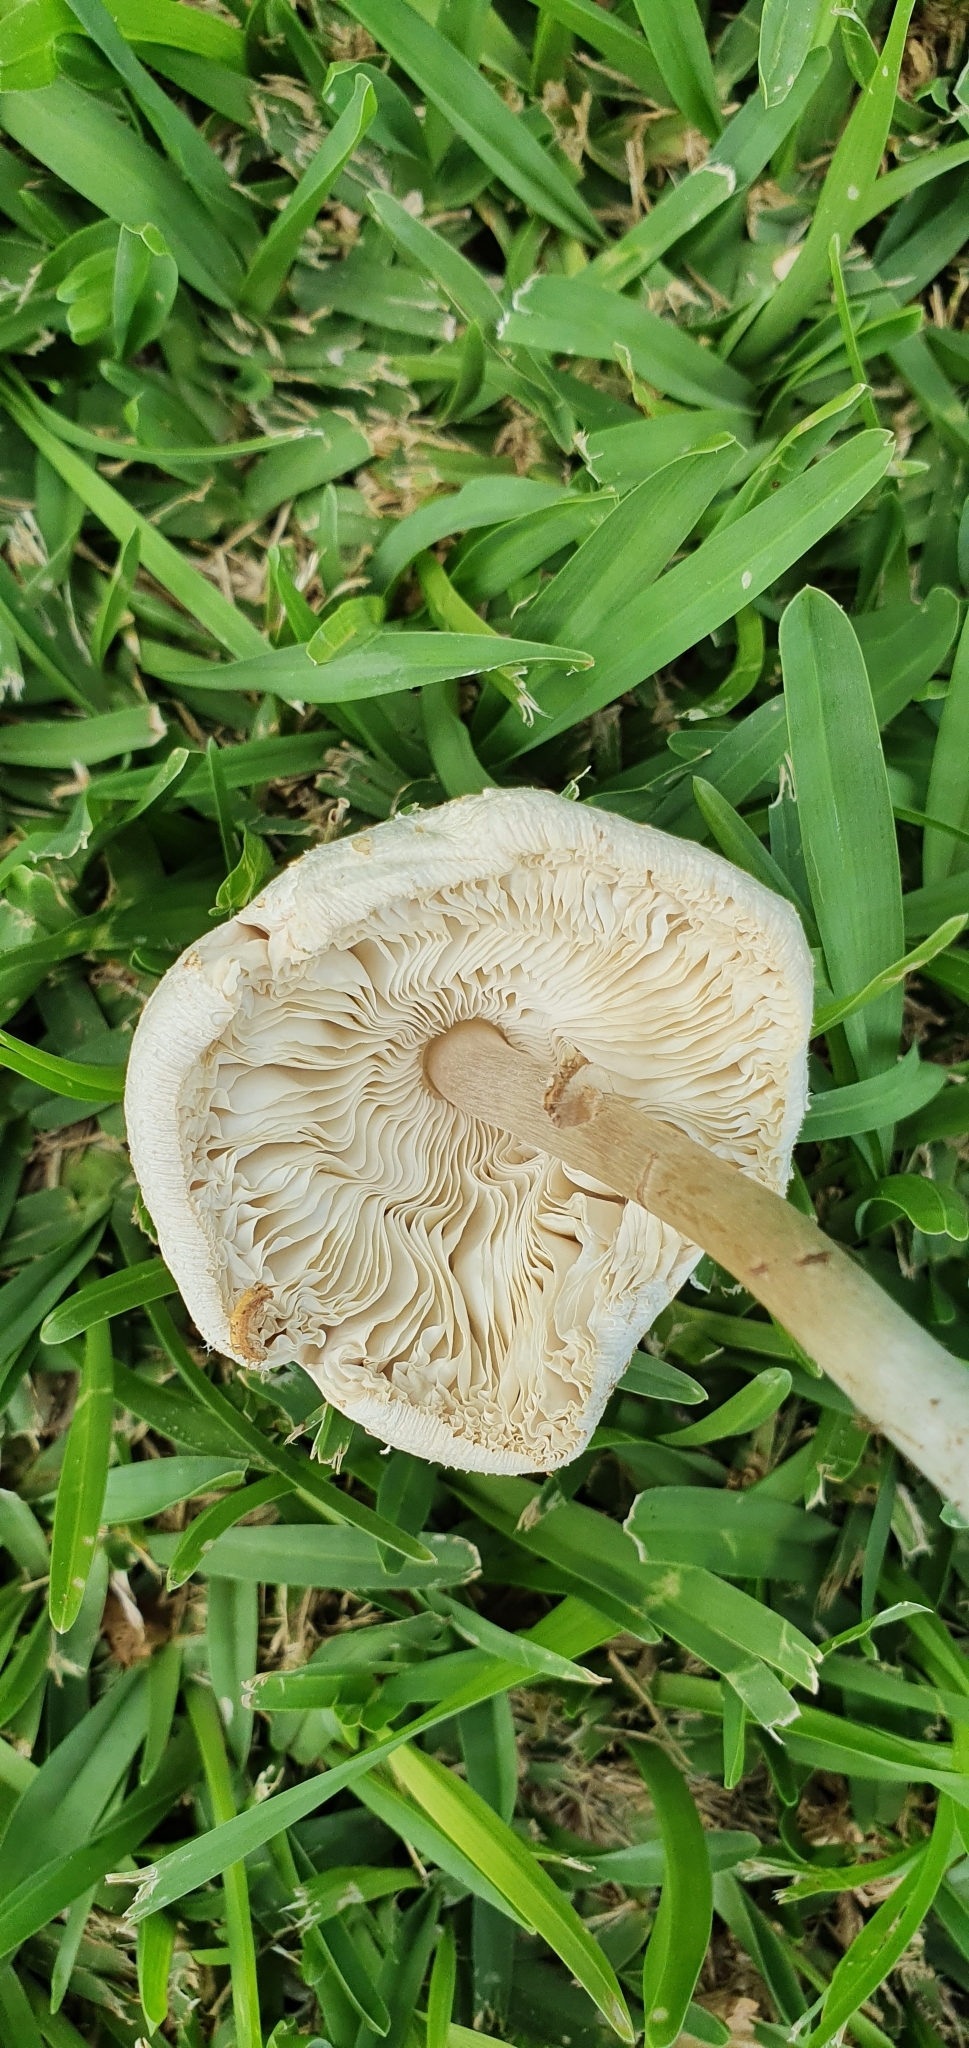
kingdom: Fungi
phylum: Basidiomycota
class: Agaricomycetes
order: Agaricales
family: Agaricaceae
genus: Chlorophyllum
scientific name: Chlorophyllum molybdites
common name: False parasol
